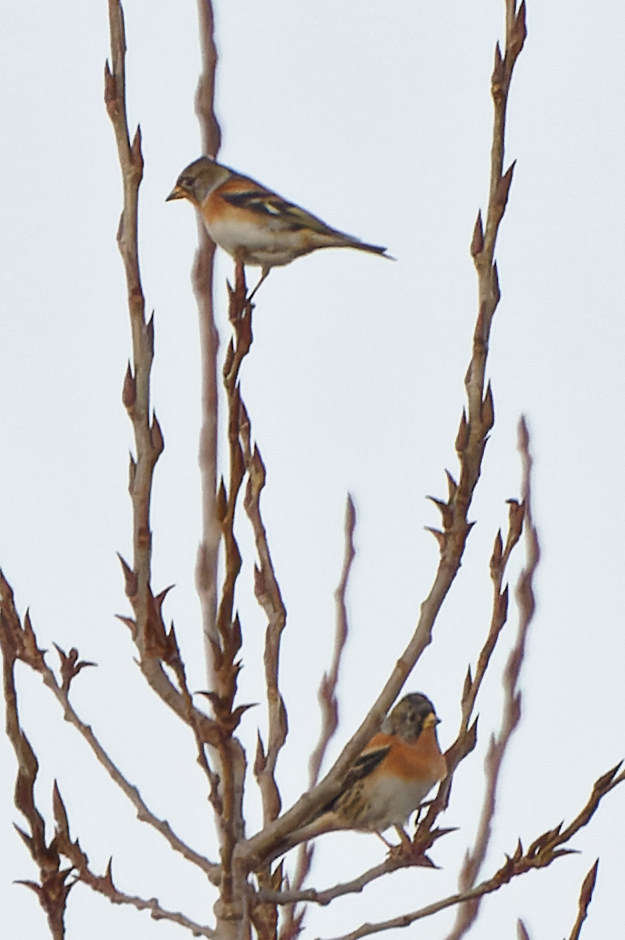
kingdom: Animalia
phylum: Chordata
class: Aves
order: Passeriformes
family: Fringillidae
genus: Fringilla
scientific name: Fringilla montifringilla
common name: Brambling
